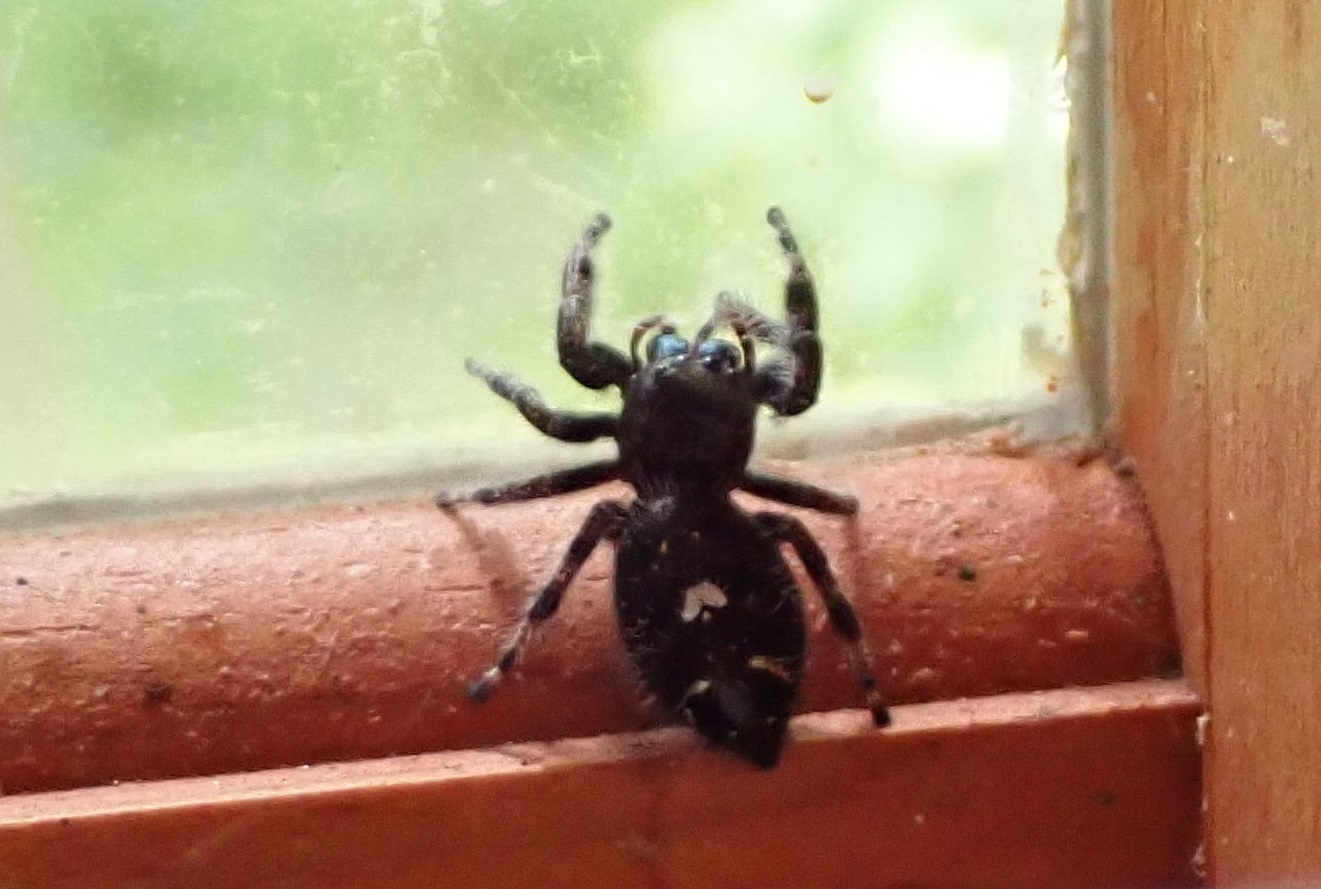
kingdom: Animalia
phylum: Arthropoda
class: Arachnida
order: Araneae
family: Salticidae
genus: Phidippus
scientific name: Phidippus audax
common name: Bold jumper
